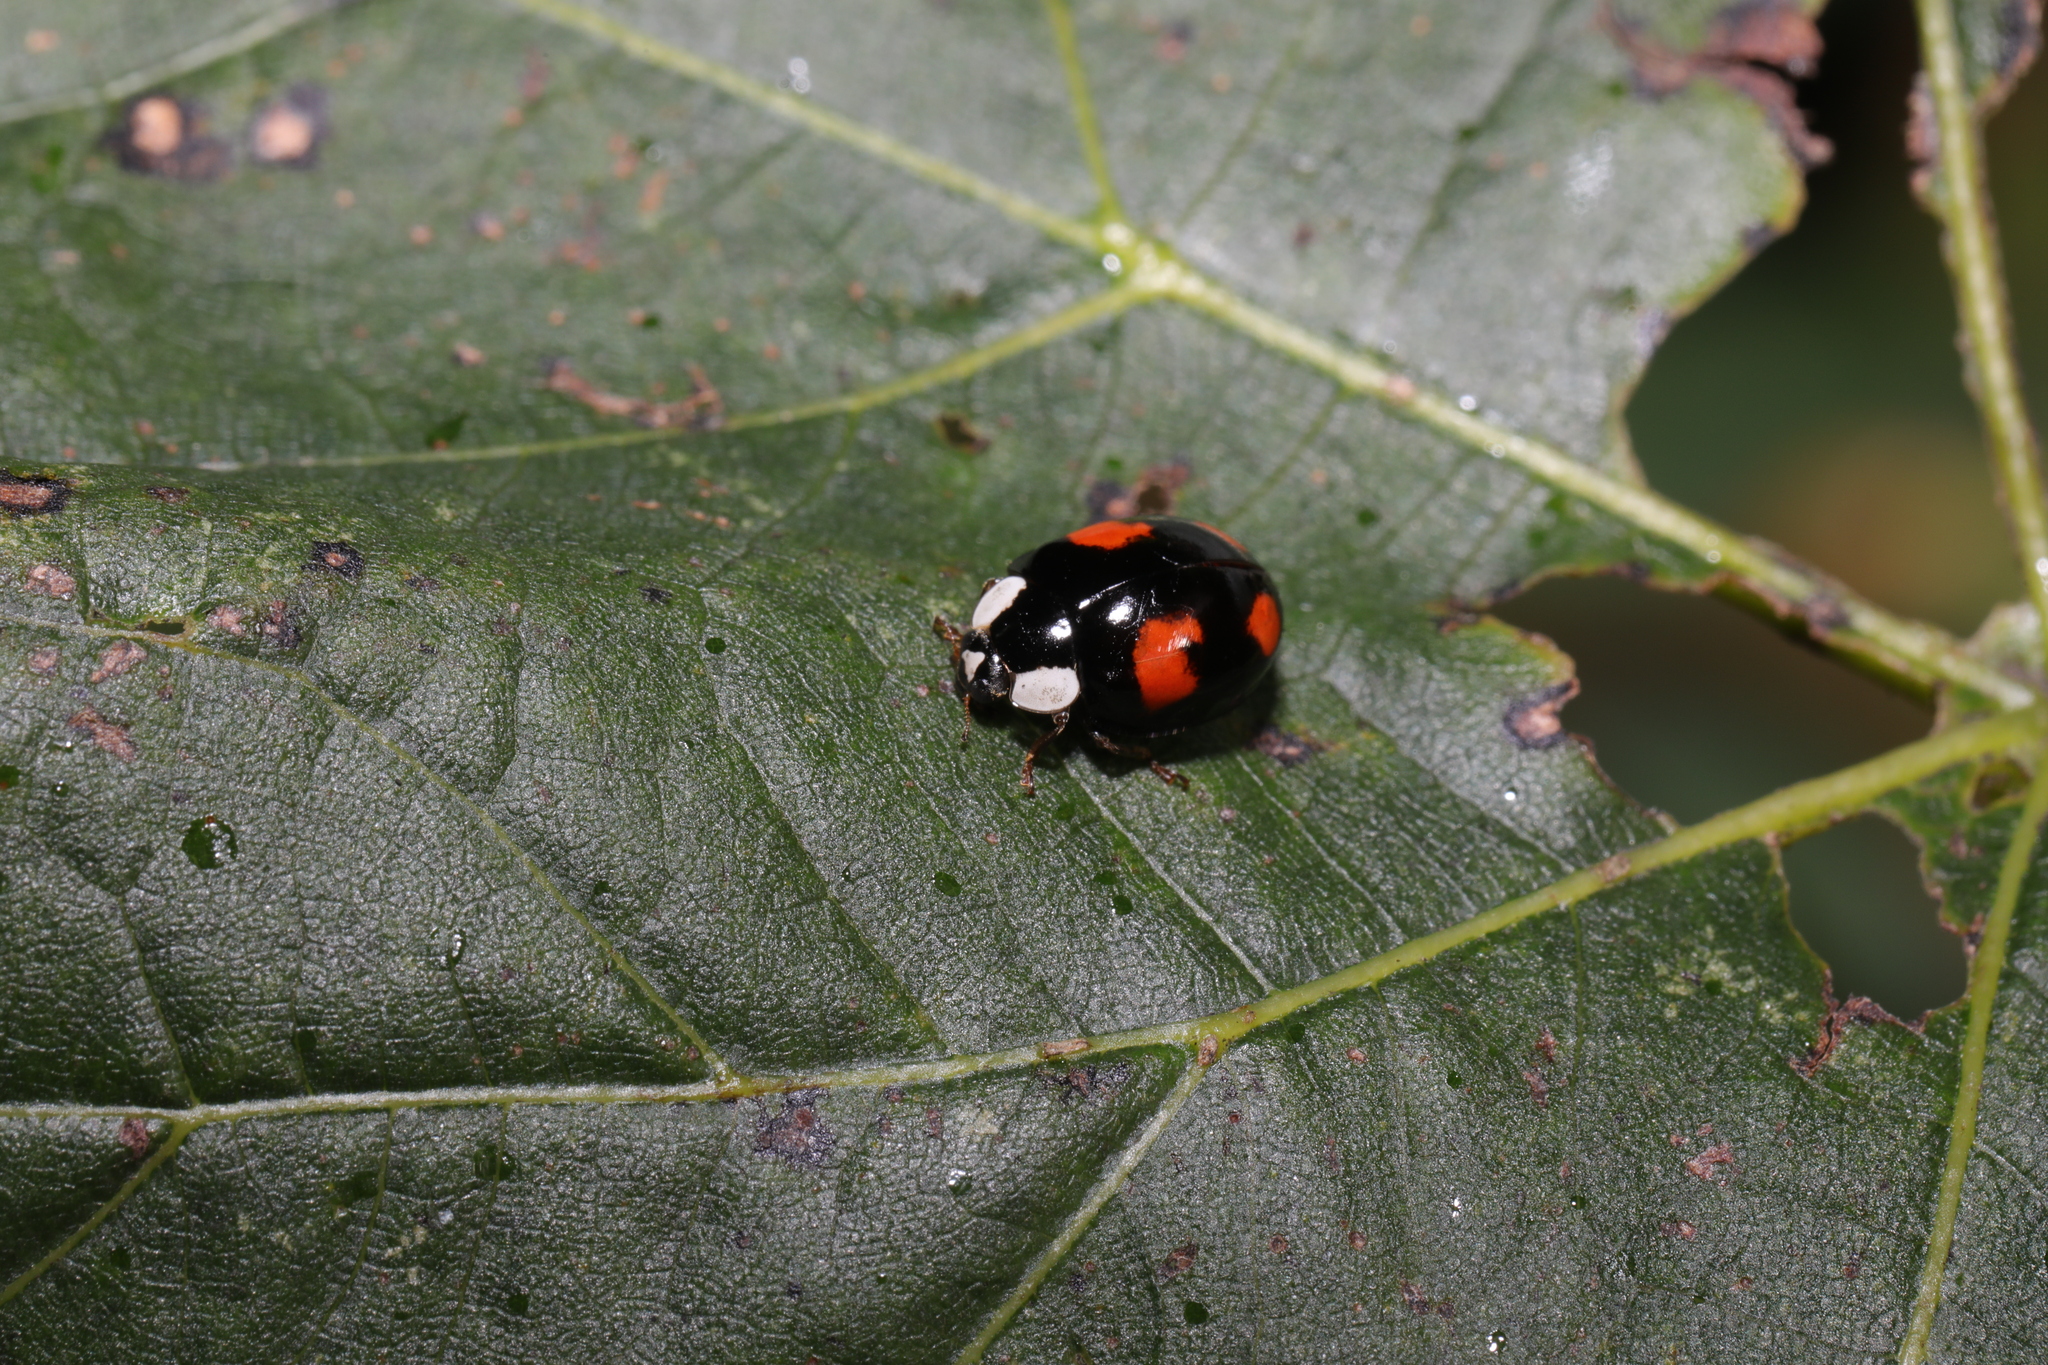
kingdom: Animalia
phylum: Arthropoda
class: Insecta
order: Coleoptera
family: Coccinellidae
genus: Harmonia
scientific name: Harmonia axyridis
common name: Harlequin ladybird
